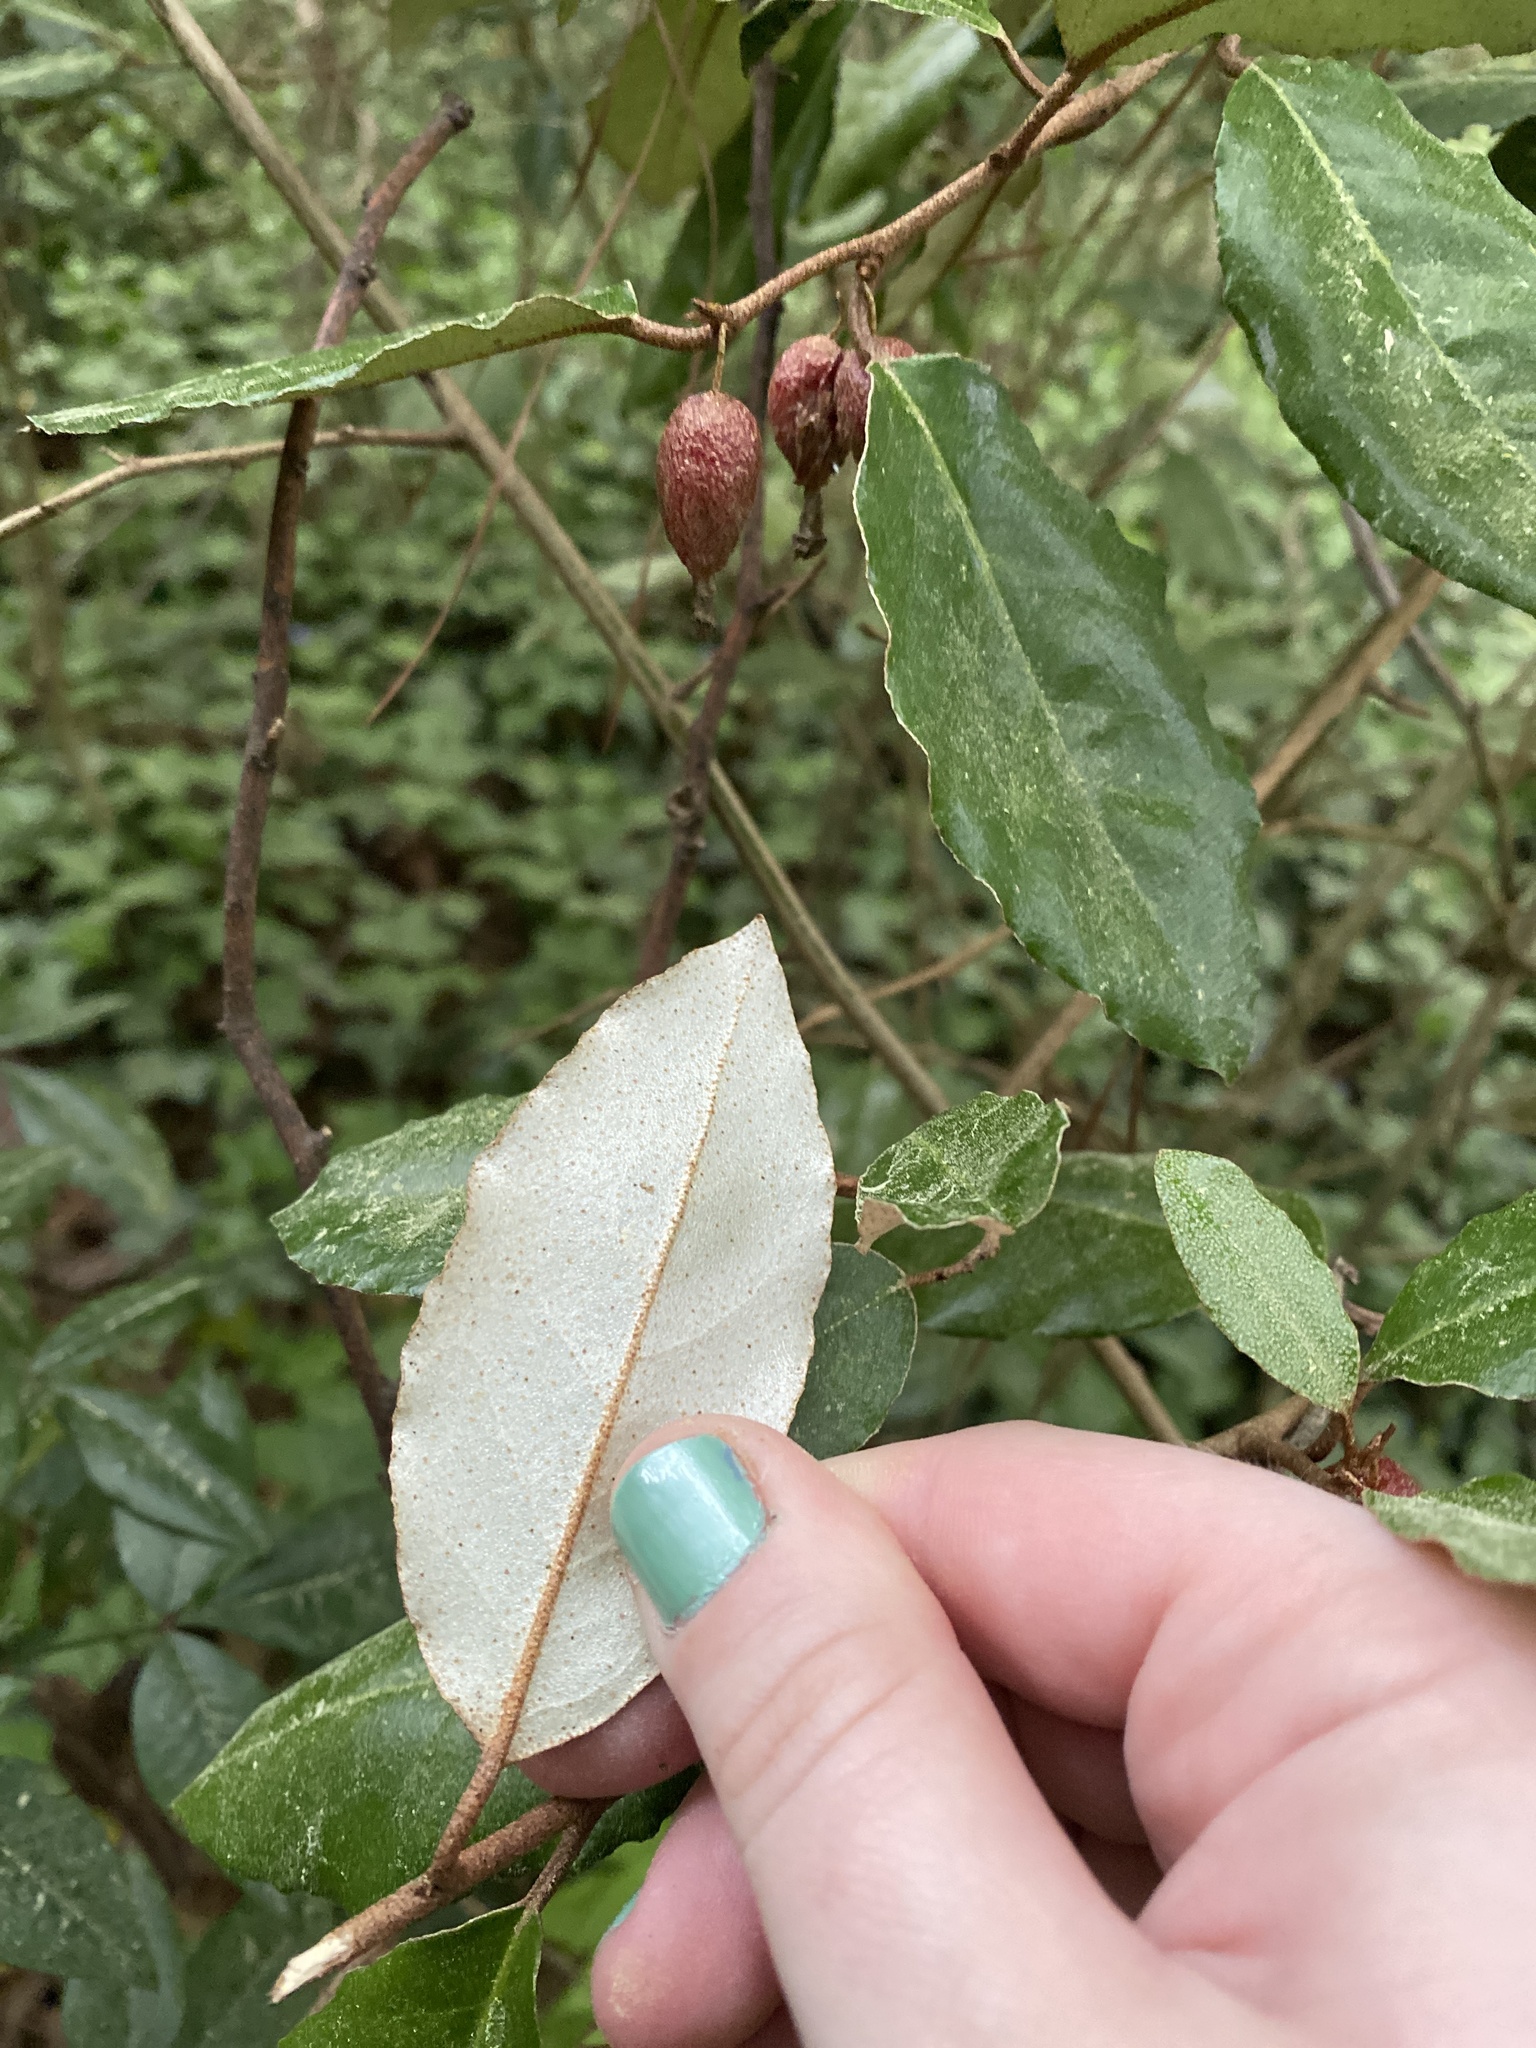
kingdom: Plantae
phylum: Tracheophyta
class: Magnoliopsida
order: Rosales
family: Elaeagnaceae
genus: Elaeagnus
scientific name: Elaeagnus pungens
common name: Spiny oleaster
